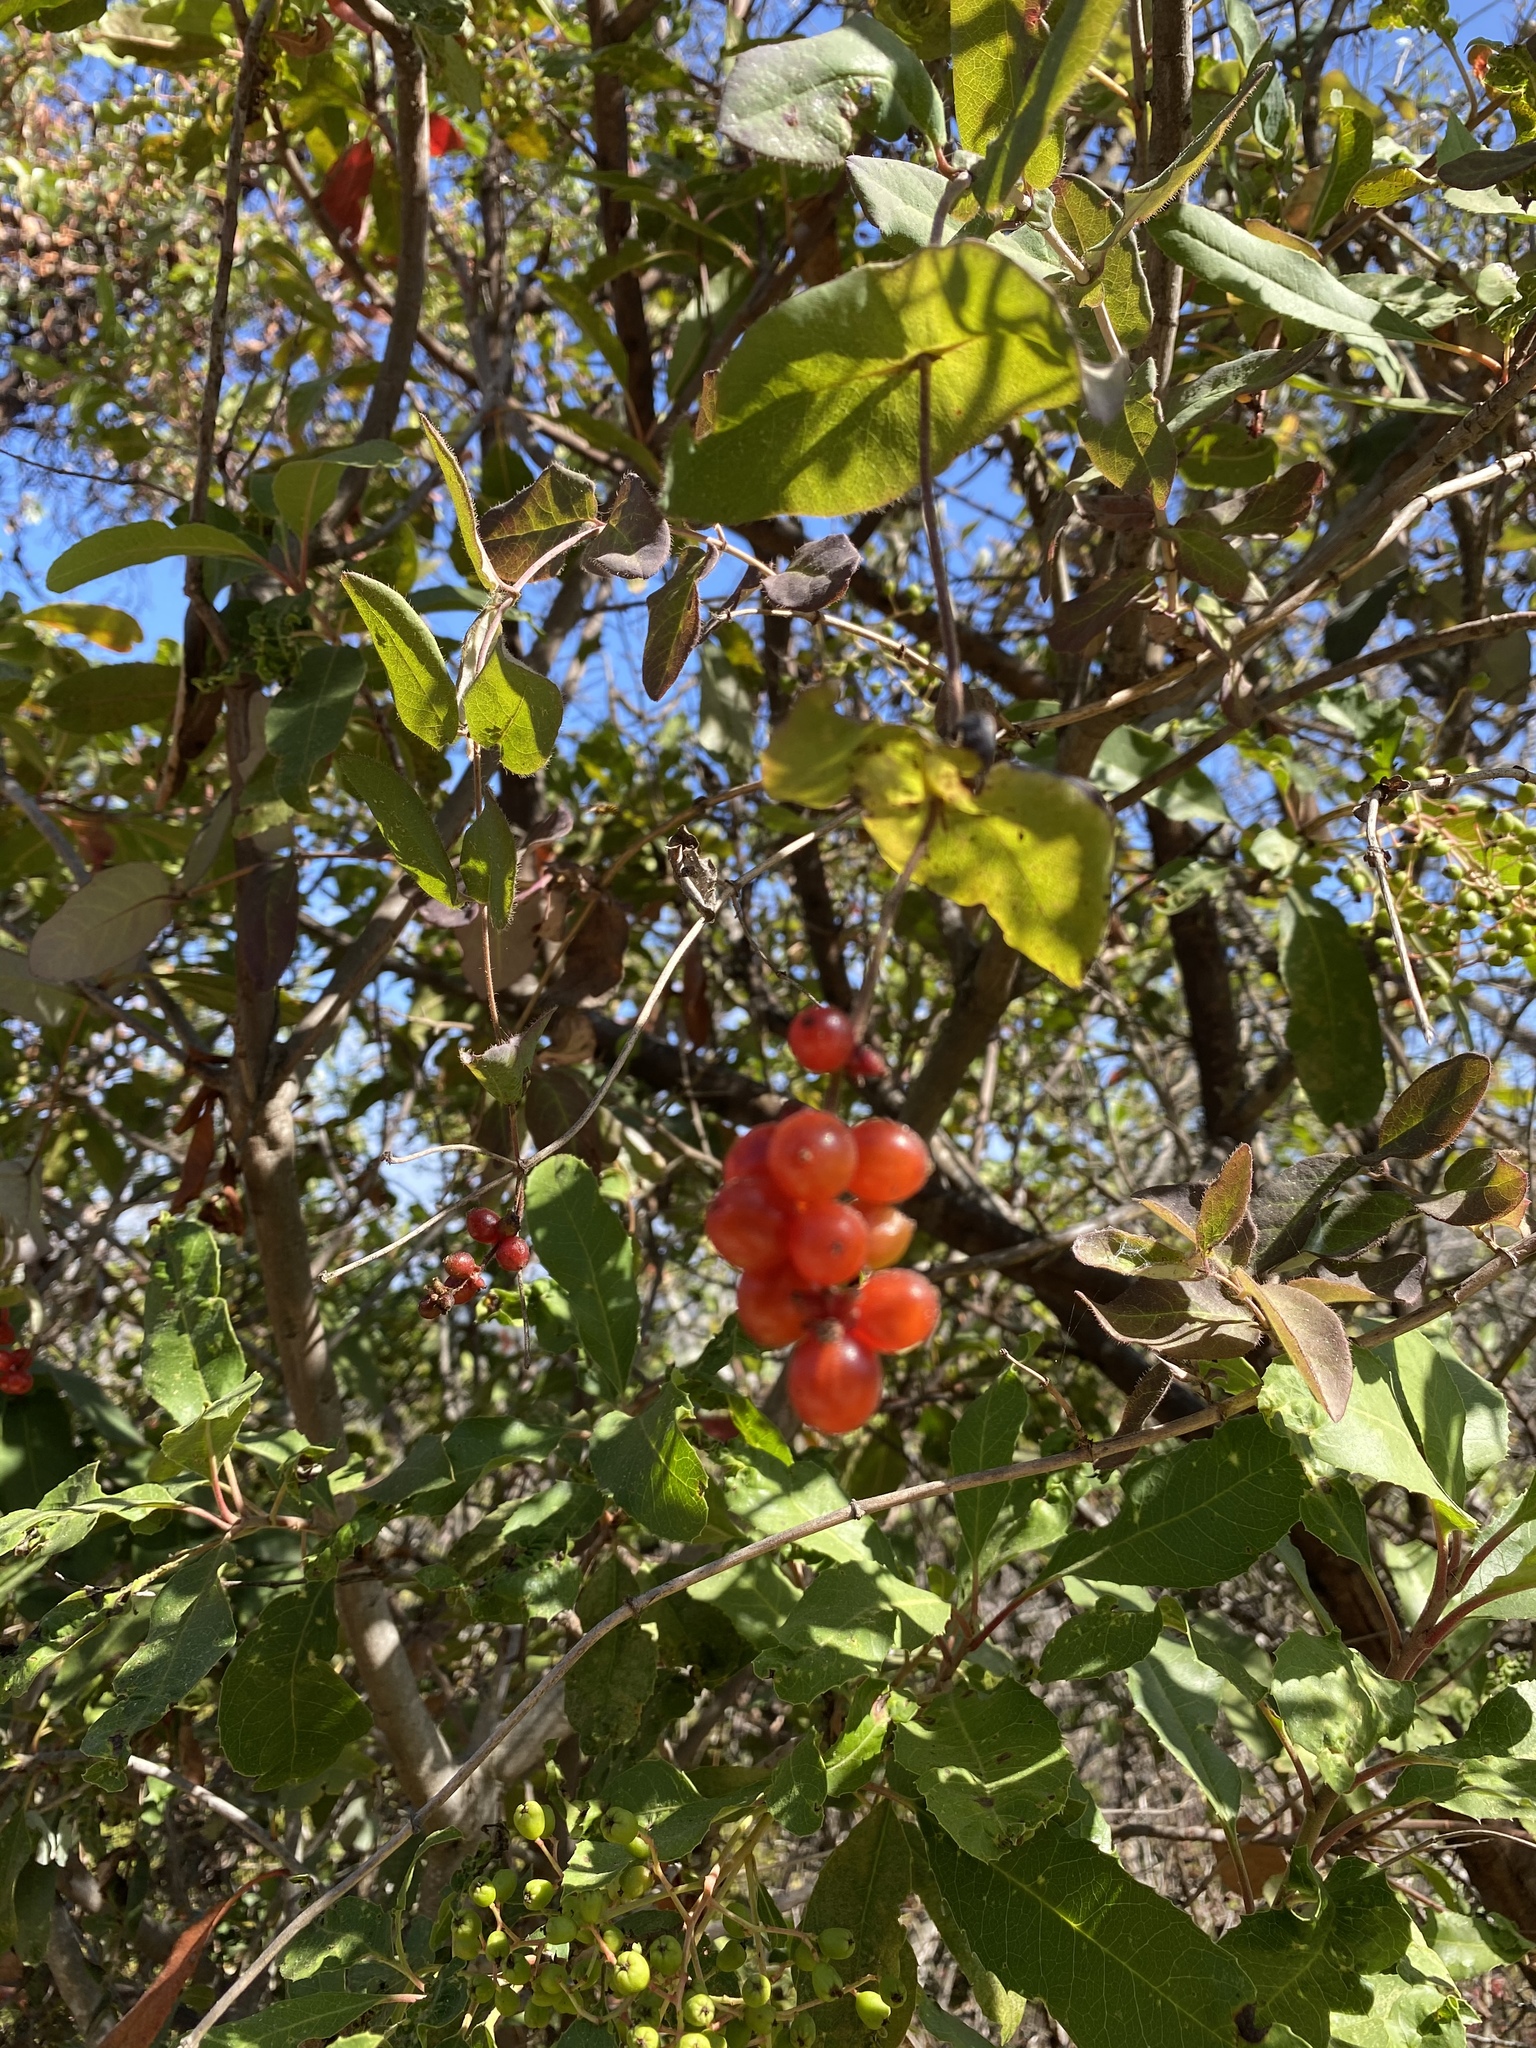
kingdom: Plantae
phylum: Tracheophyta
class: Magnoliopsida
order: Dipsacales
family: Caprifoliaceae
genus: Lonicera
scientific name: Lonicera hispidula
